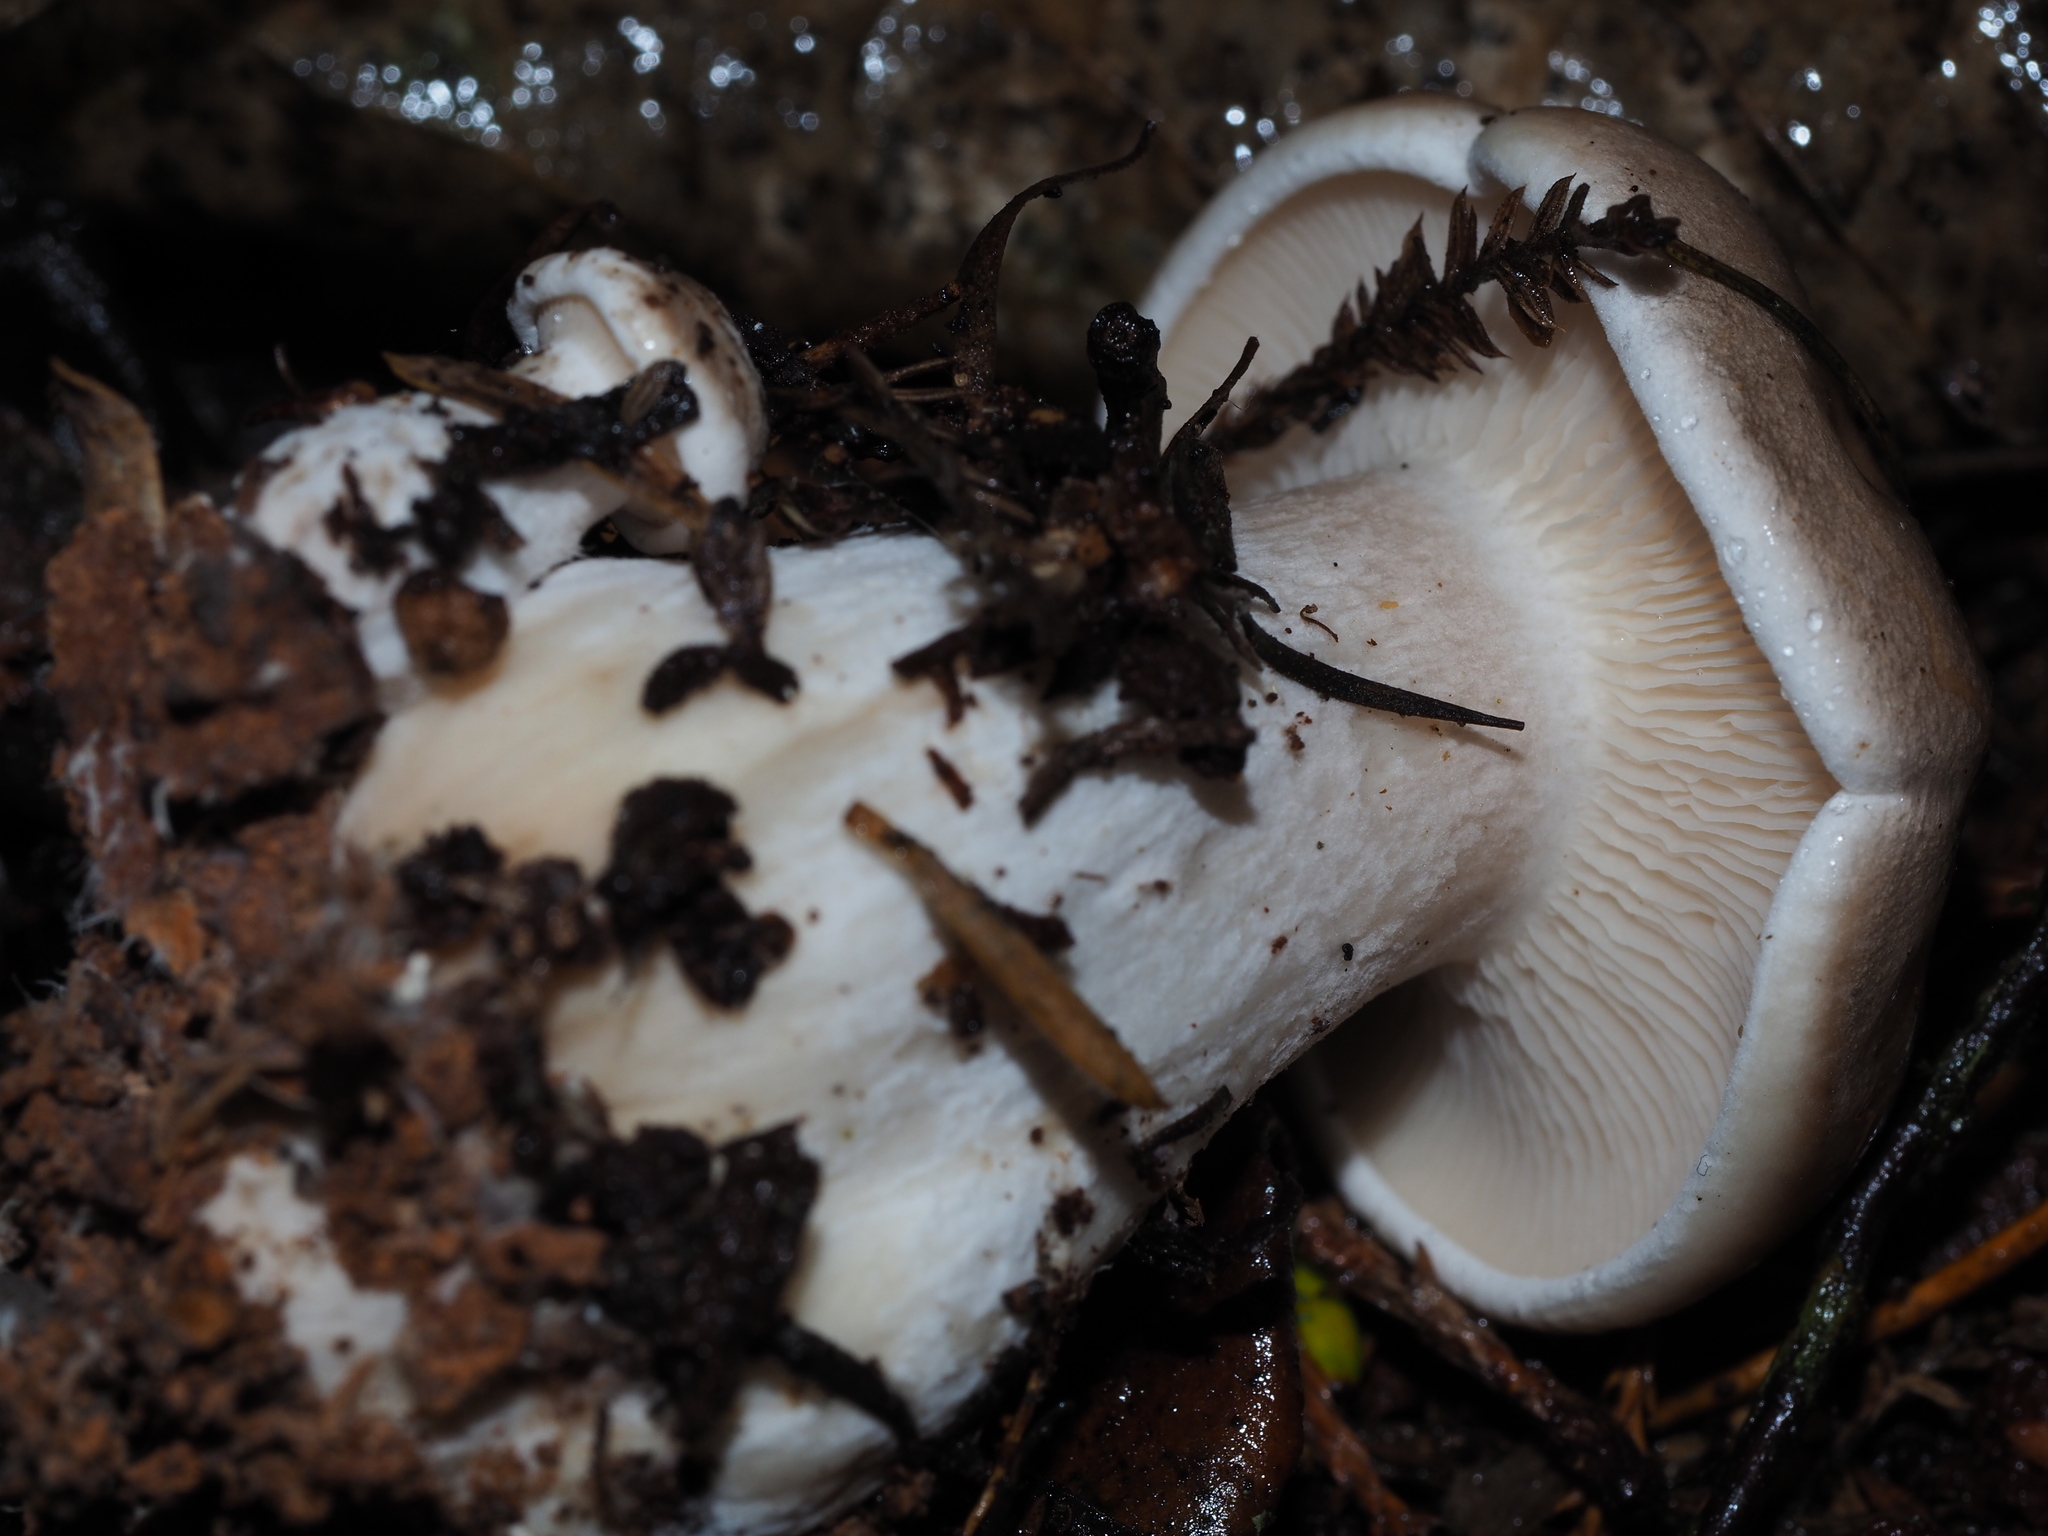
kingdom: Fungi
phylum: Basidiomycota
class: Agaricomycetes
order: Agaricales
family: Tricholomataceae
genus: Clitocybe
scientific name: Clitocybe nebularis
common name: Clouded agaric
